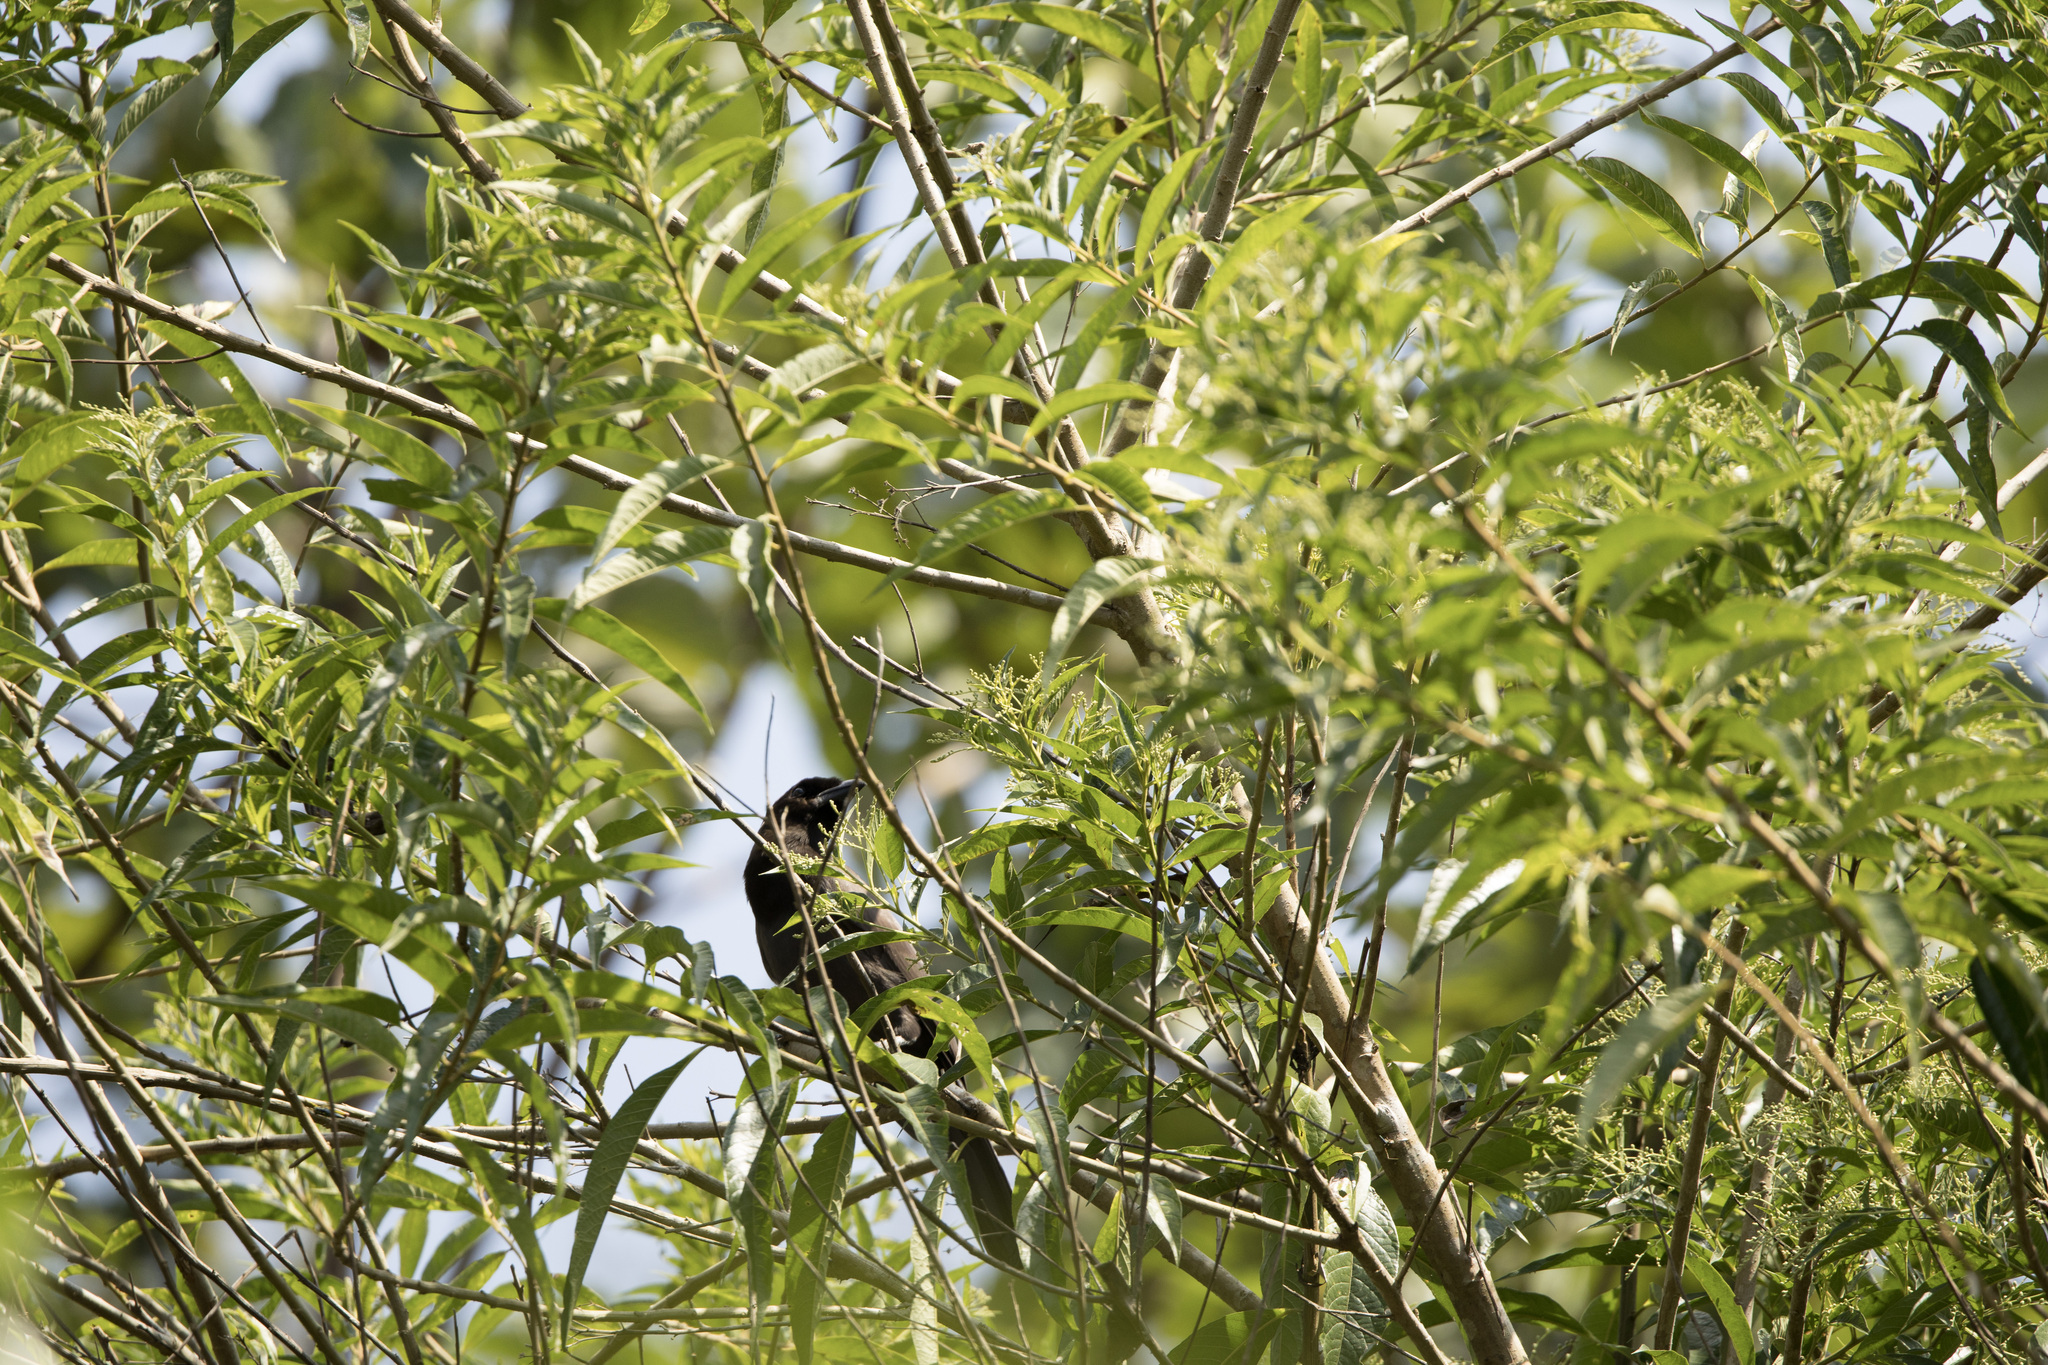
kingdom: Animalia
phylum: Chordata
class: Aves
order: Passeriformes
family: Corvidae
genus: Cyanocorax
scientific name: Cyanocorax cyanomelas
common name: Purplish jay
